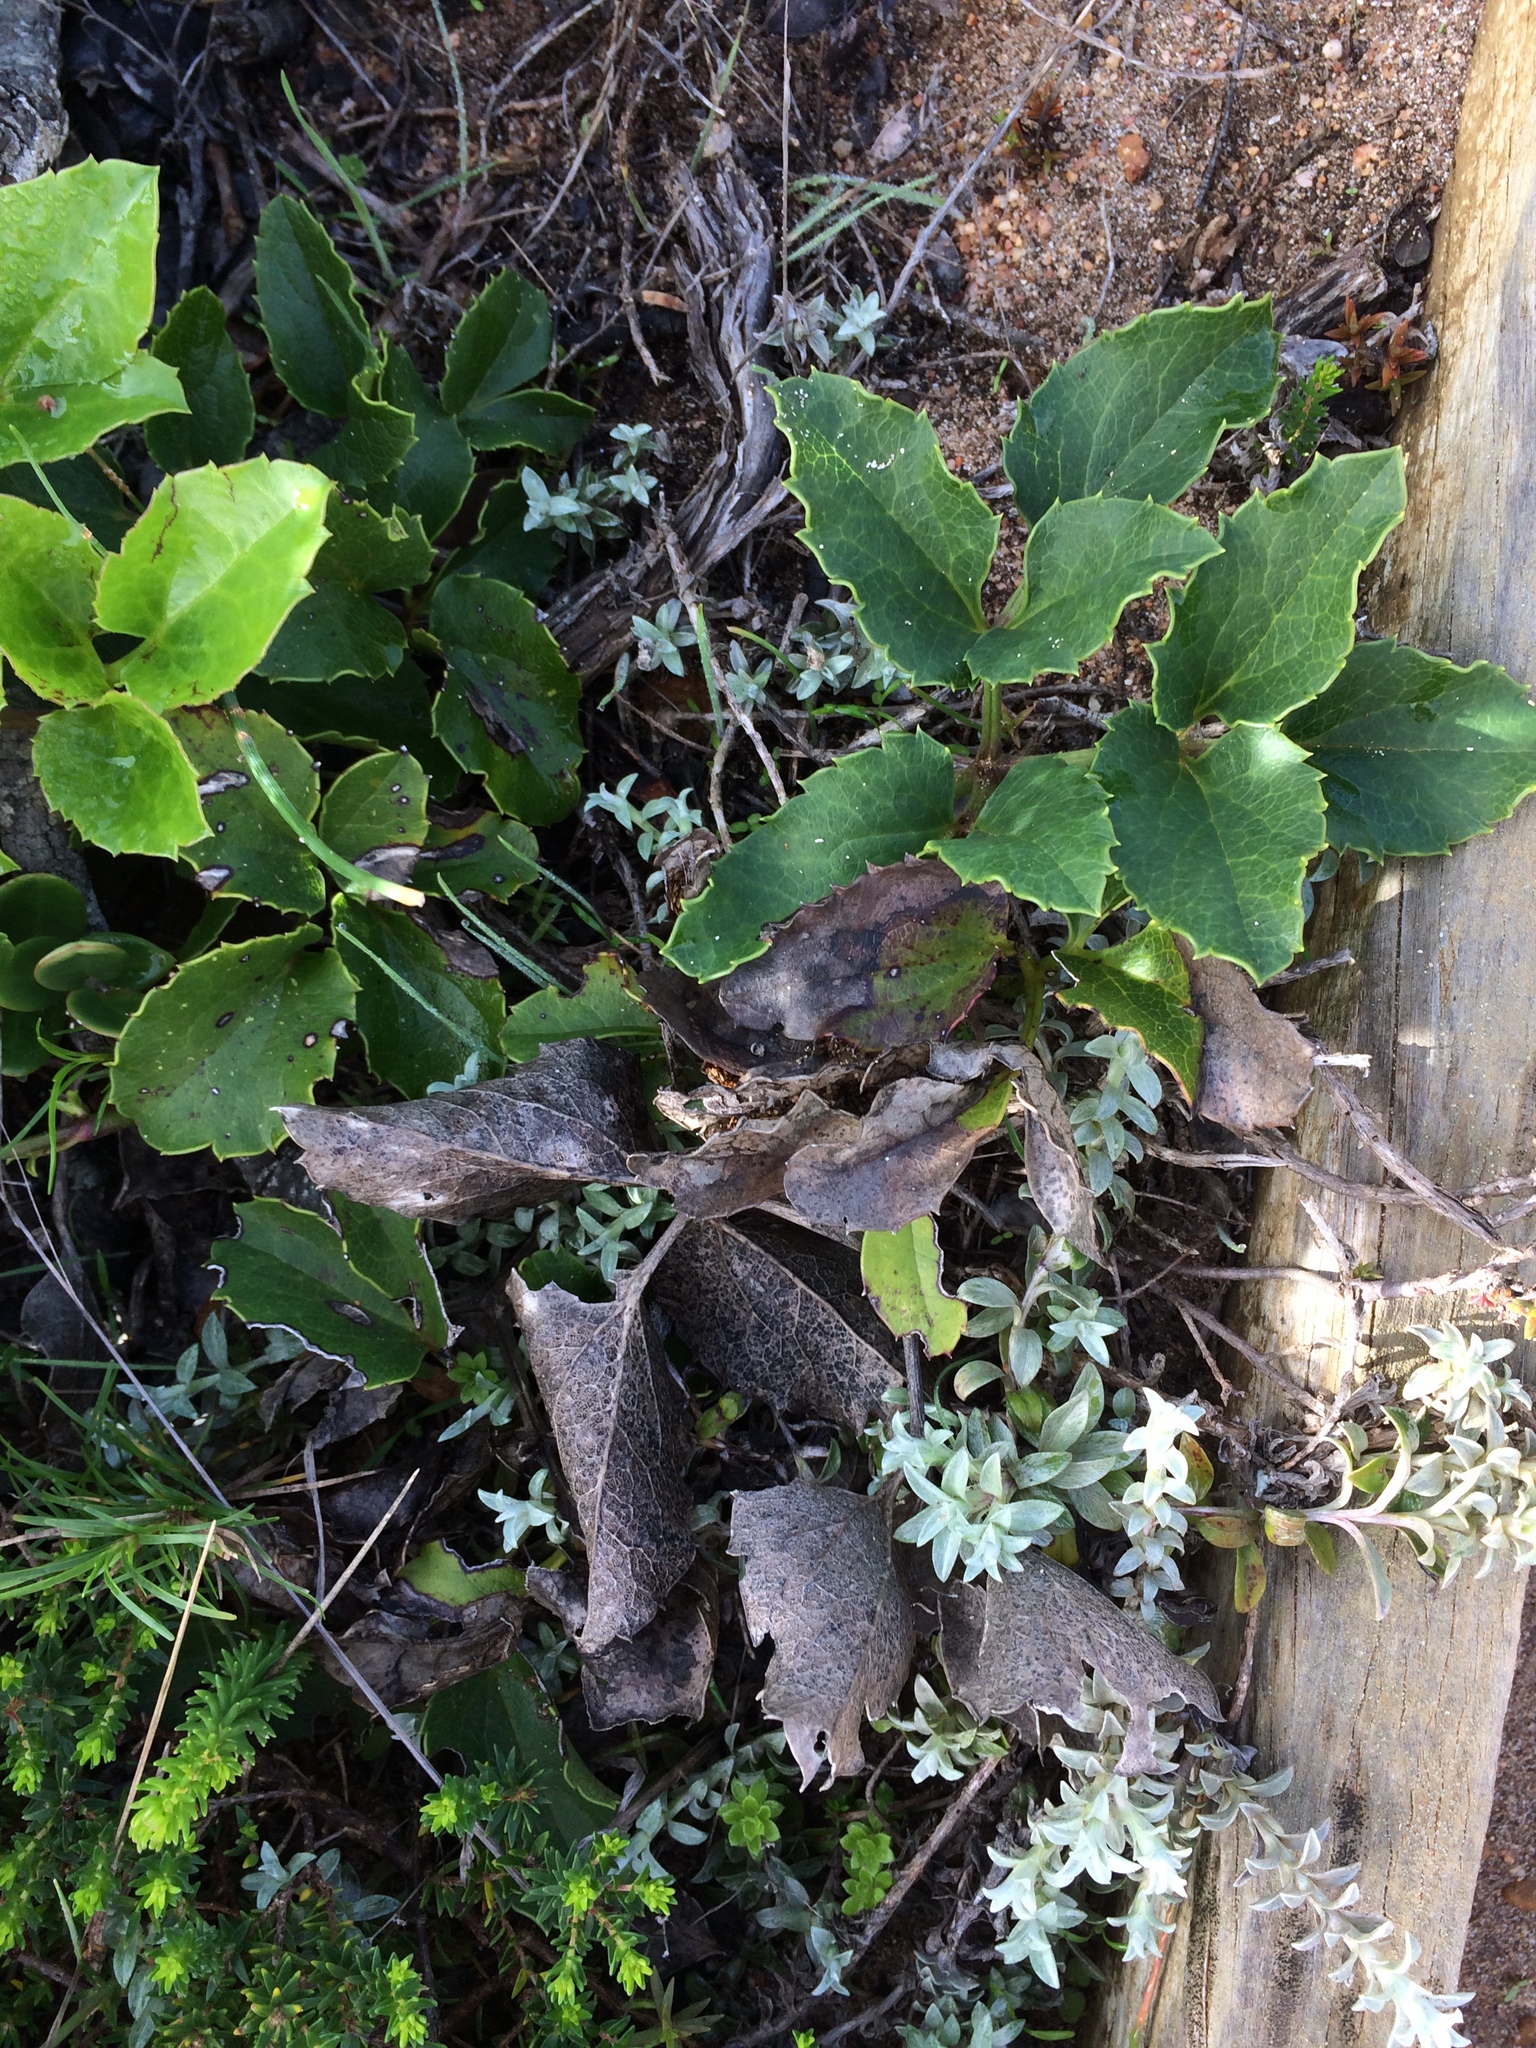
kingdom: Plantae
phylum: Tracheophyta
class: Magnoliopsida
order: Ranunculales
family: Ranunculaceae
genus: Knowltonia
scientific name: Knowltonia vesicatoria
